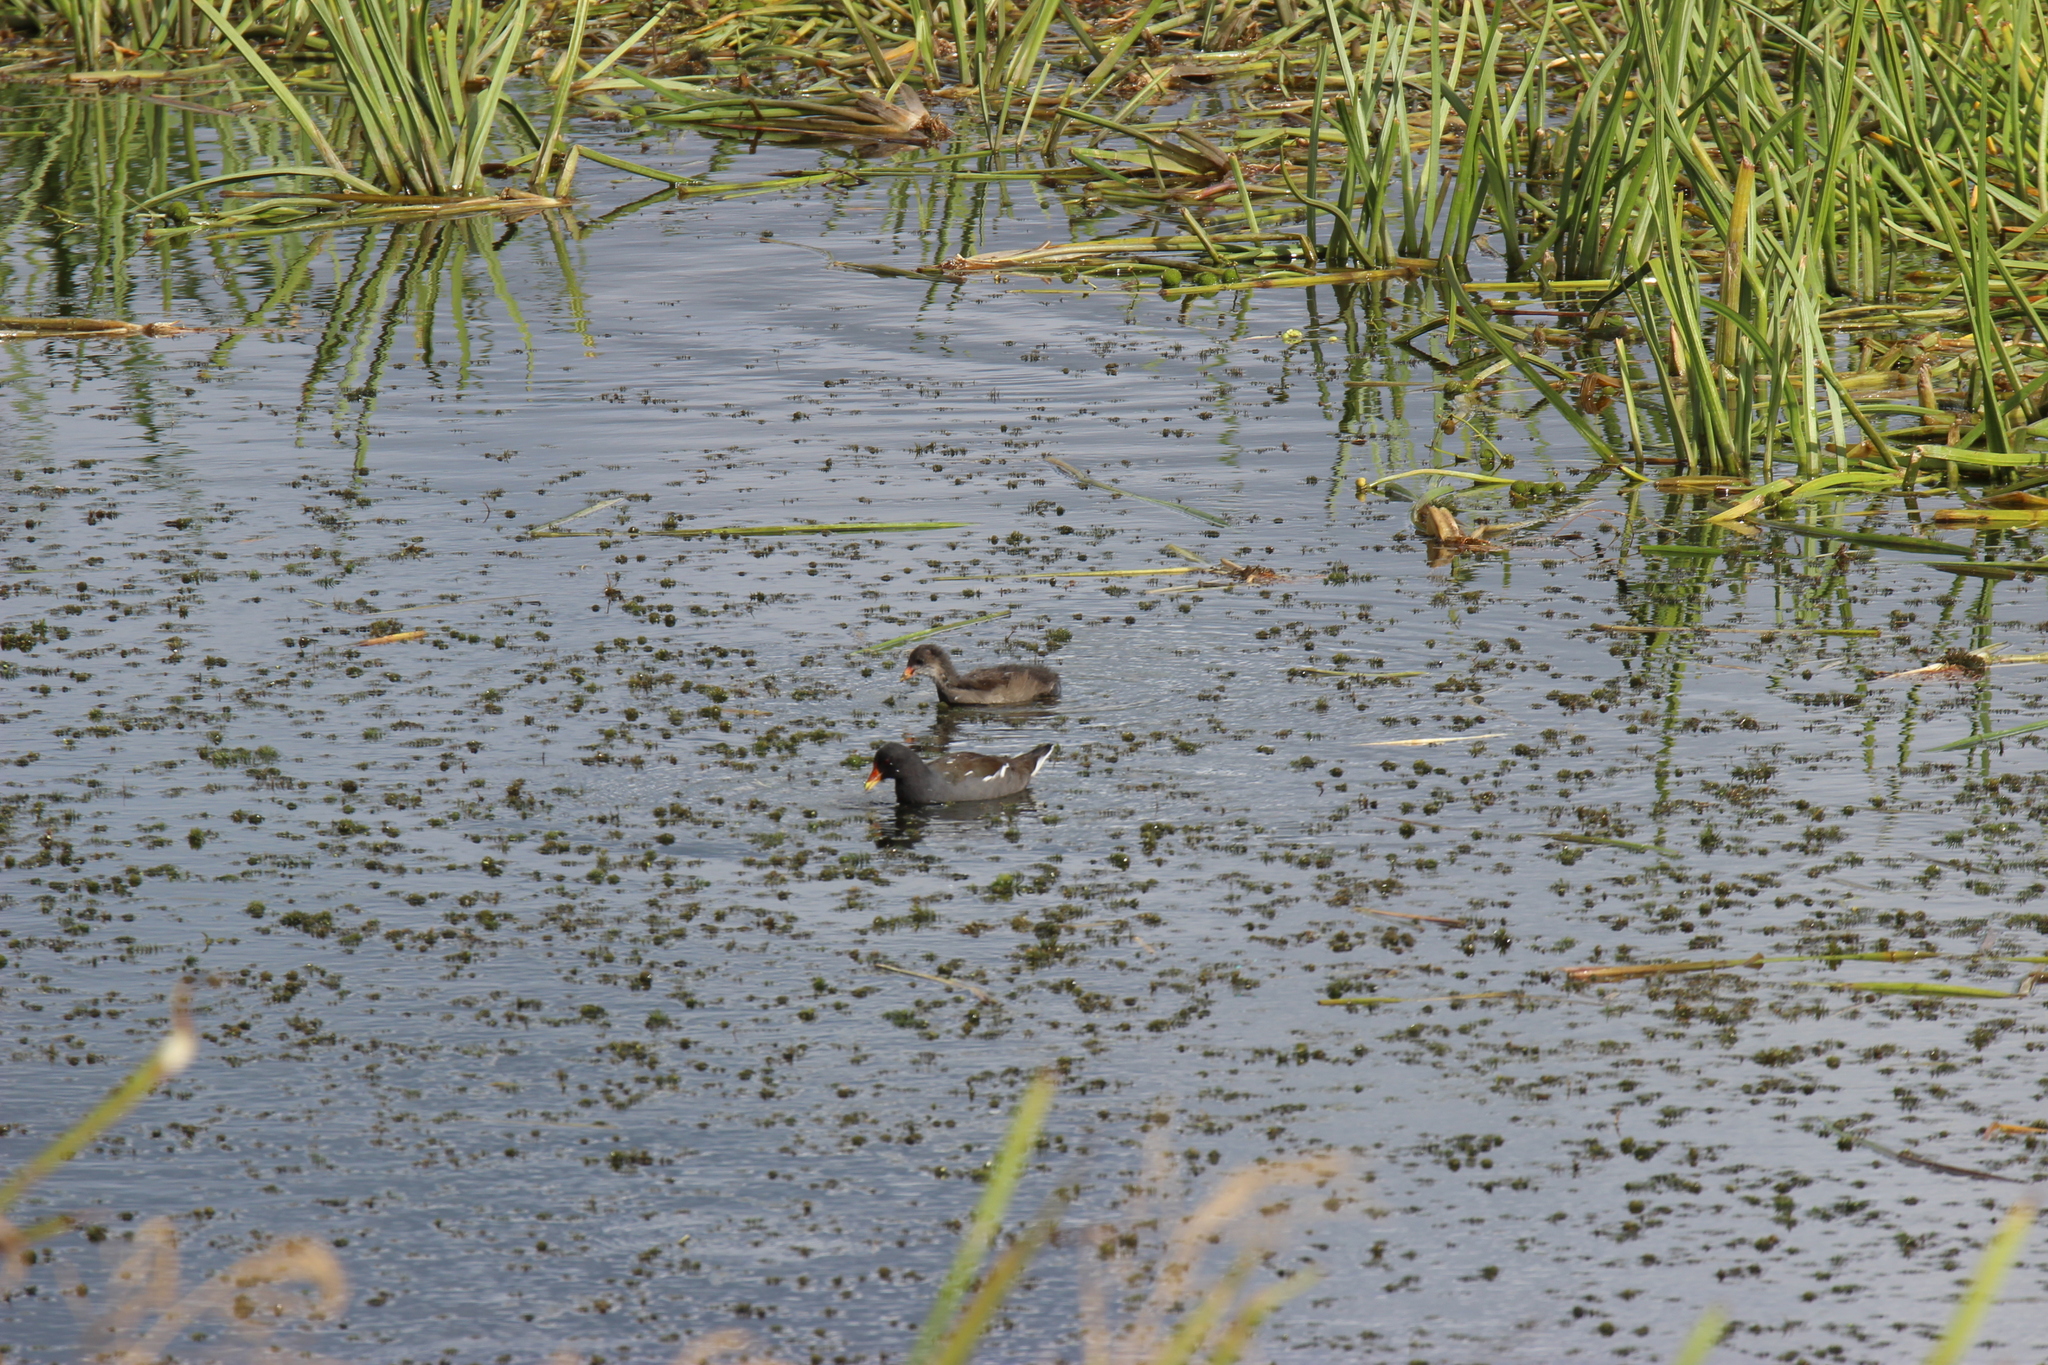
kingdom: Animalia
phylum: Chordata
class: Aves
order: Gruiformes
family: Rallidae
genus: Gallinula
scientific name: Gallinula chloropus
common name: Common moorhen
